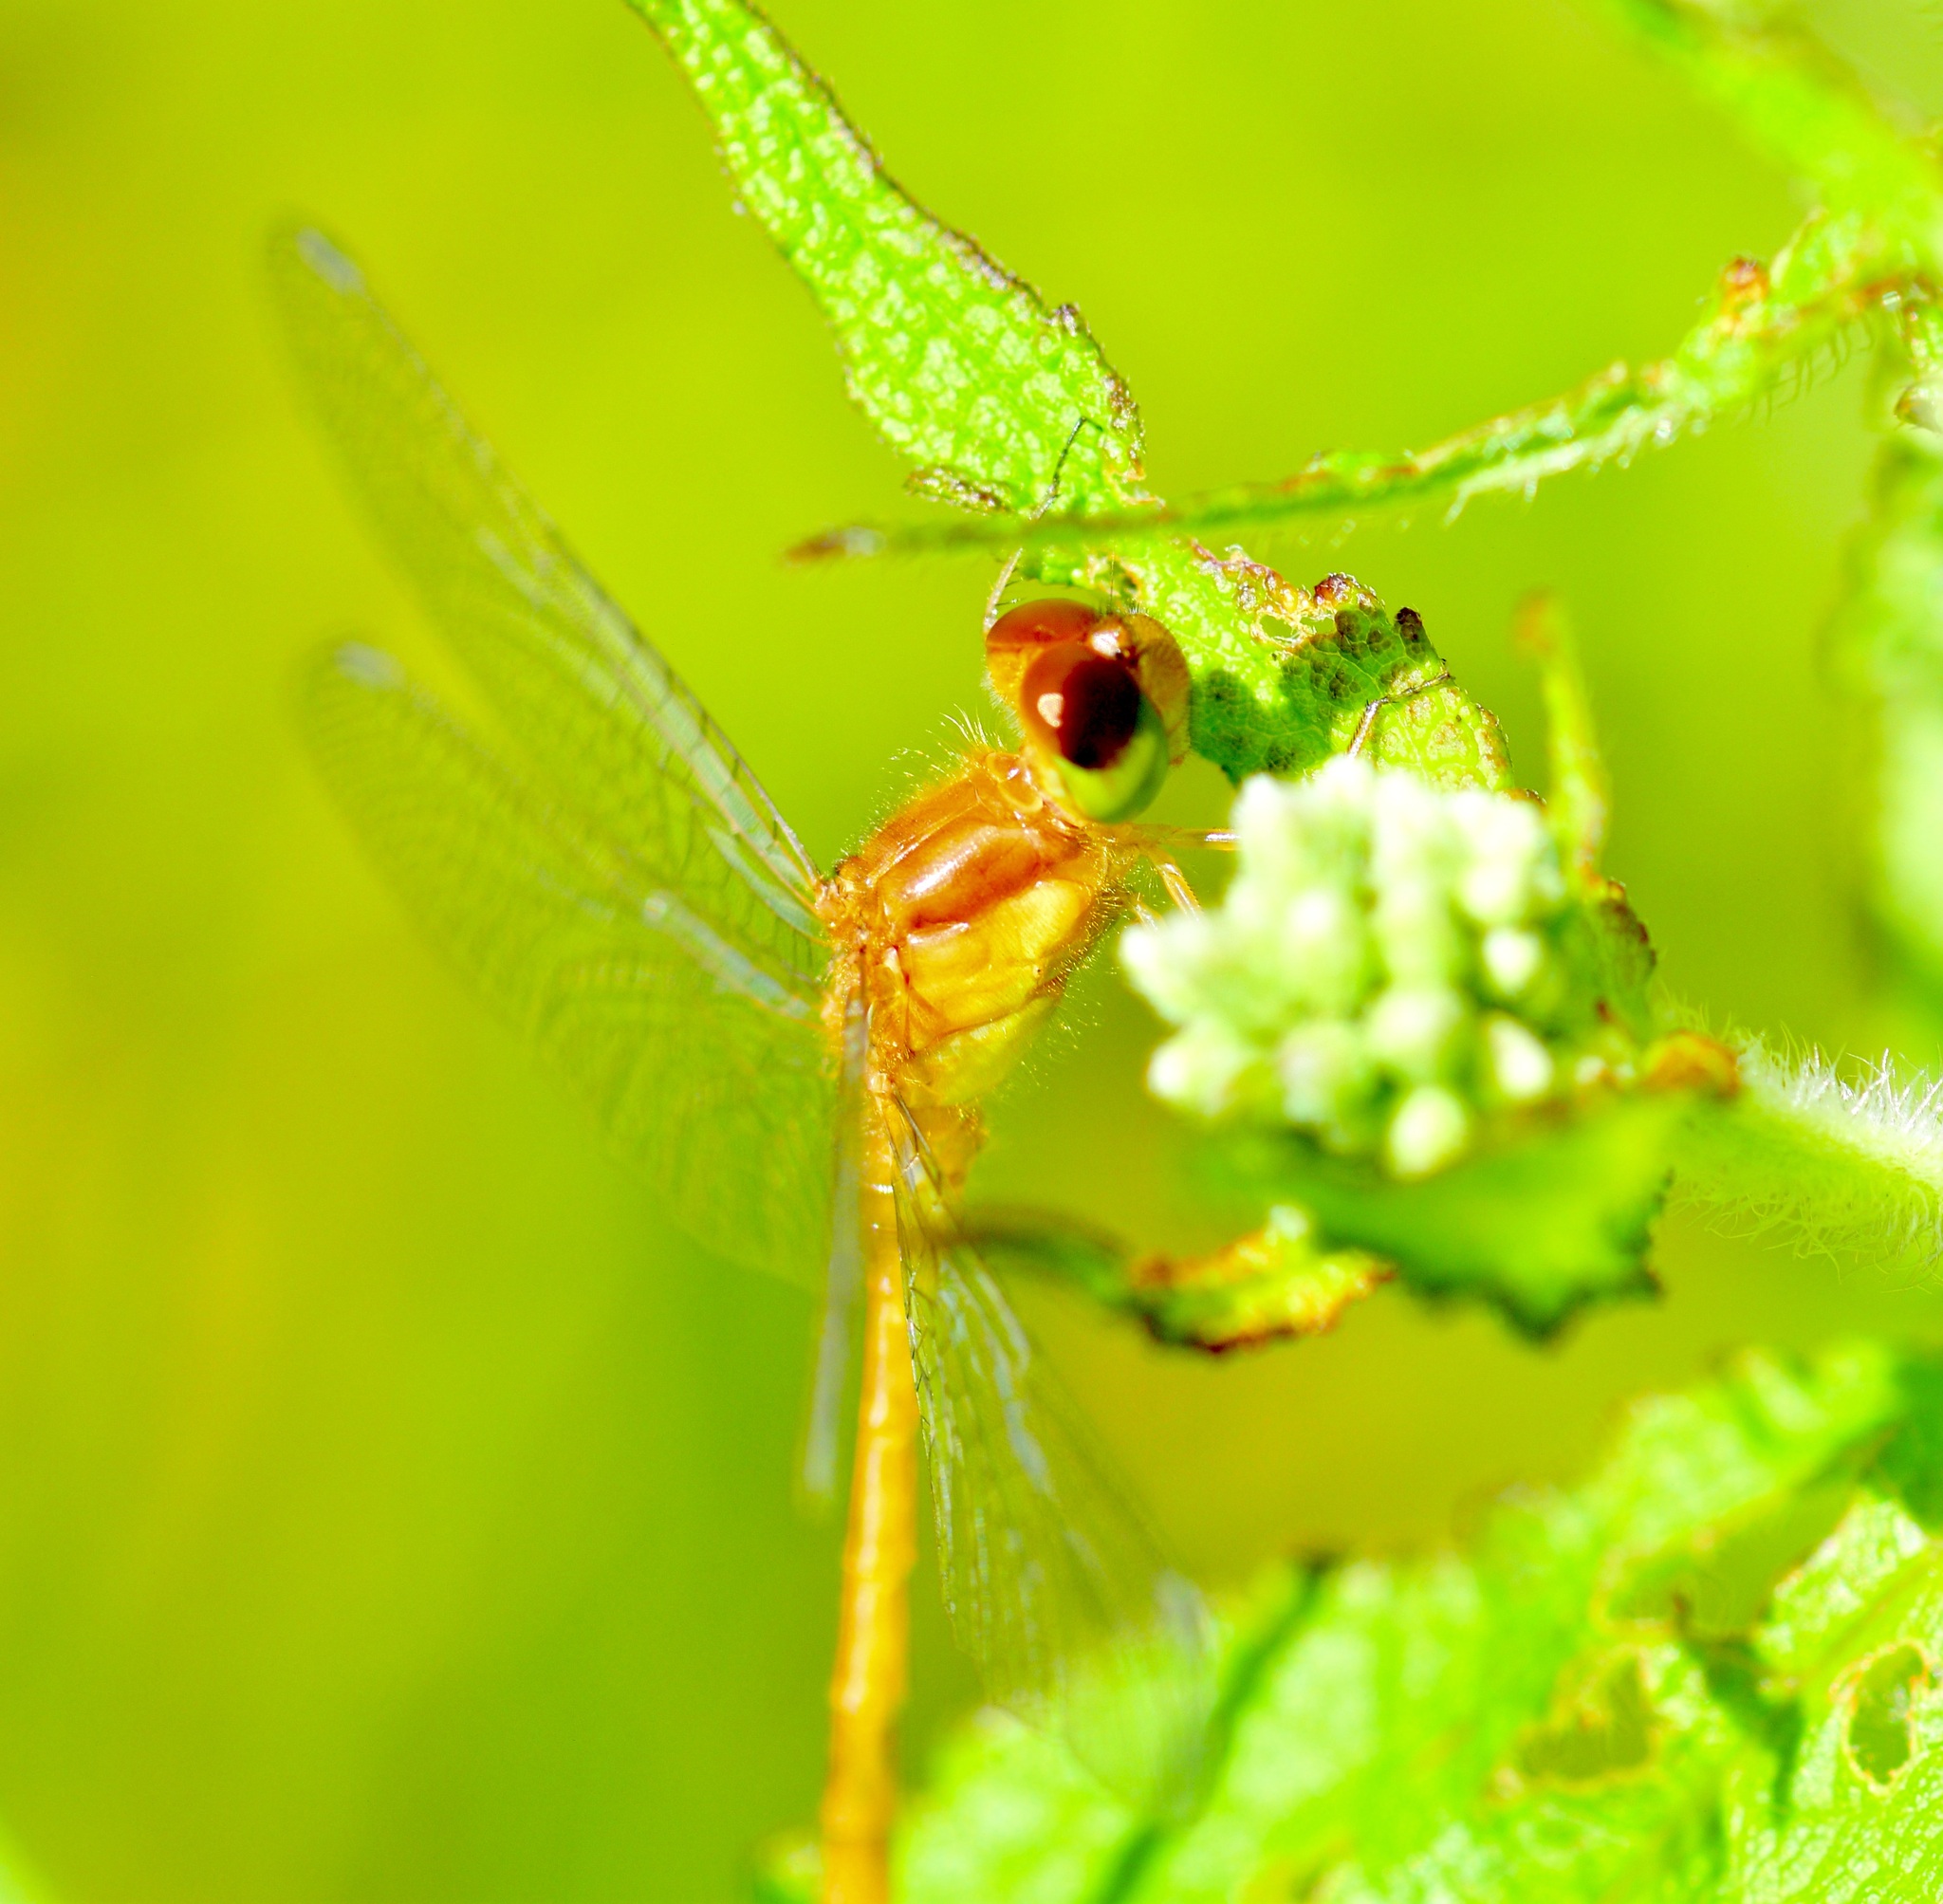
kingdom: Animalia
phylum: Arthropoda
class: Insecta
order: Odonata
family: Libellulidae
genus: Sympetrum
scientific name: Sympetrum vicinum
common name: Autumn meadowhawk
